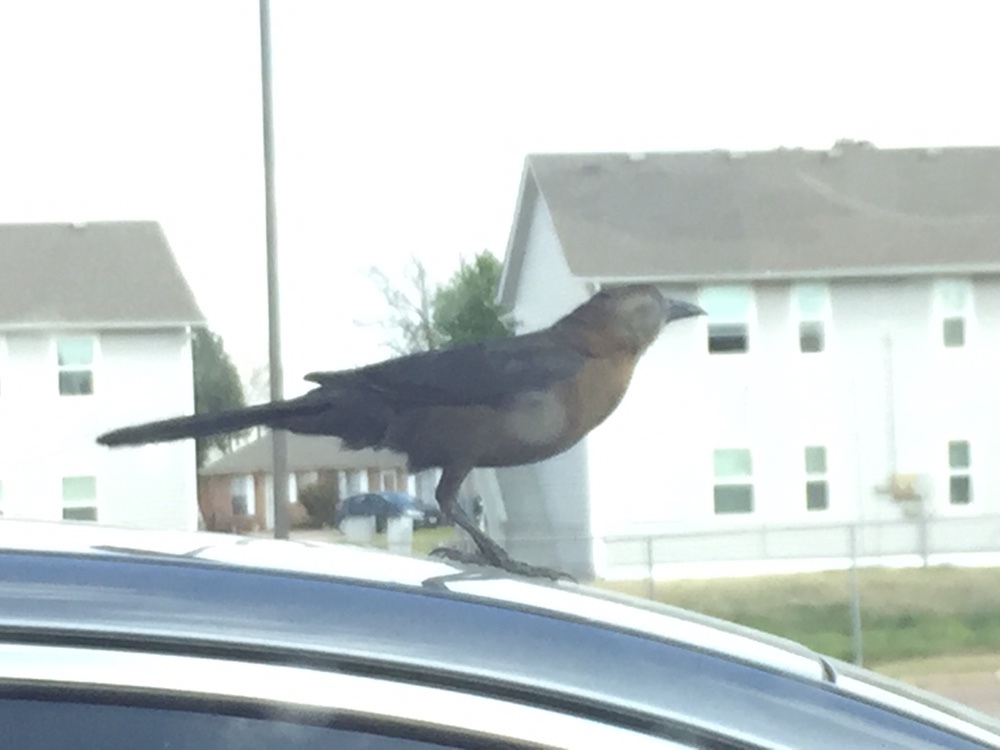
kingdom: Animalia
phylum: Chordata
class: Aves
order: Passeriformes
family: Icteridae
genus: Quiscalus
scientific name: Quiscalus mexicanus
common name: Great-tailed grackle
